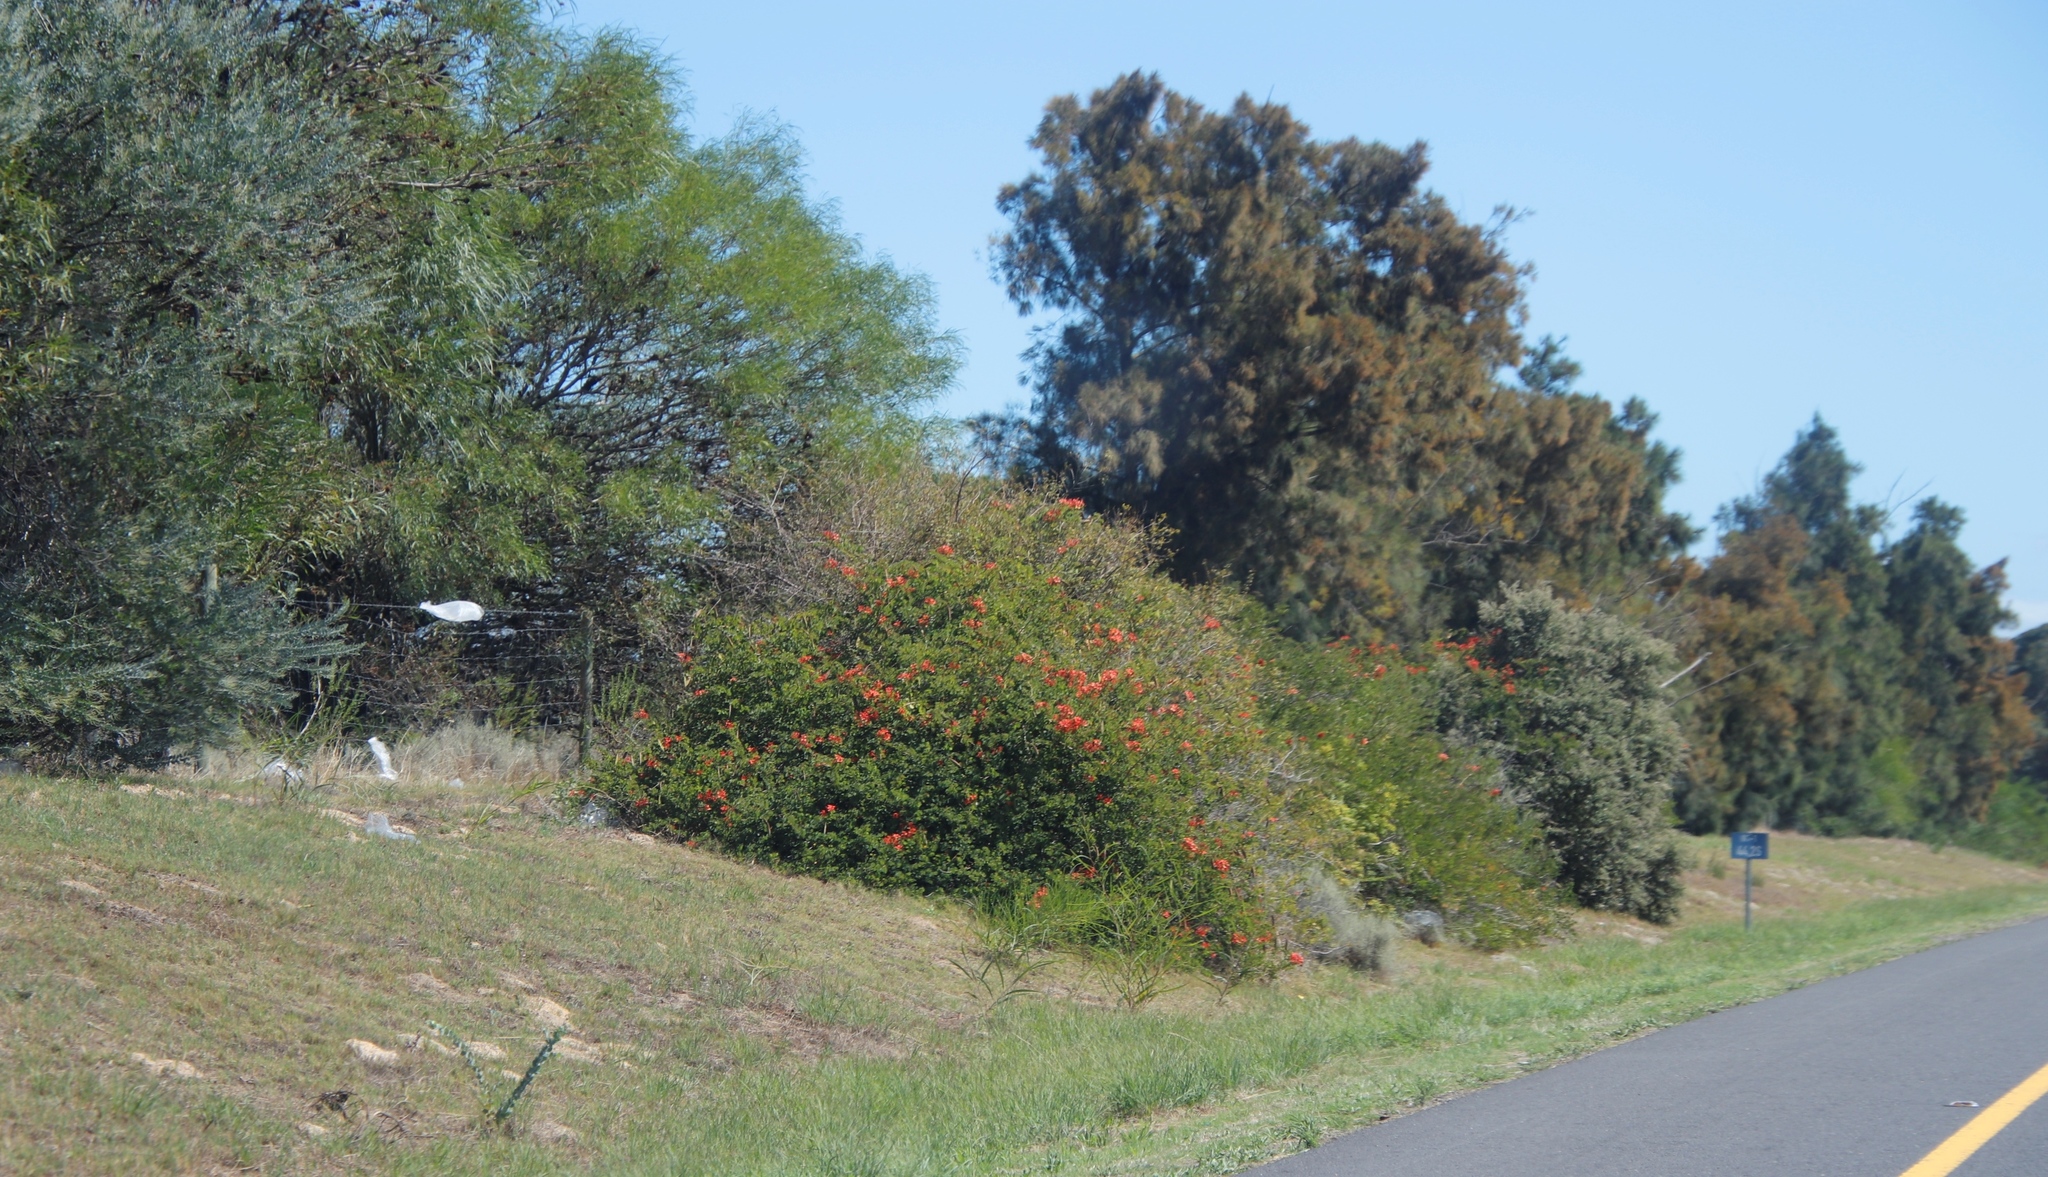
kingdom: Plantae
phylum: Tracheophyta
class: Magnoliopsida
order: Fabales
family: Fabaceae
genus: Bauhinia
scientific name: Bauhinia galpinii
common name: African plume
